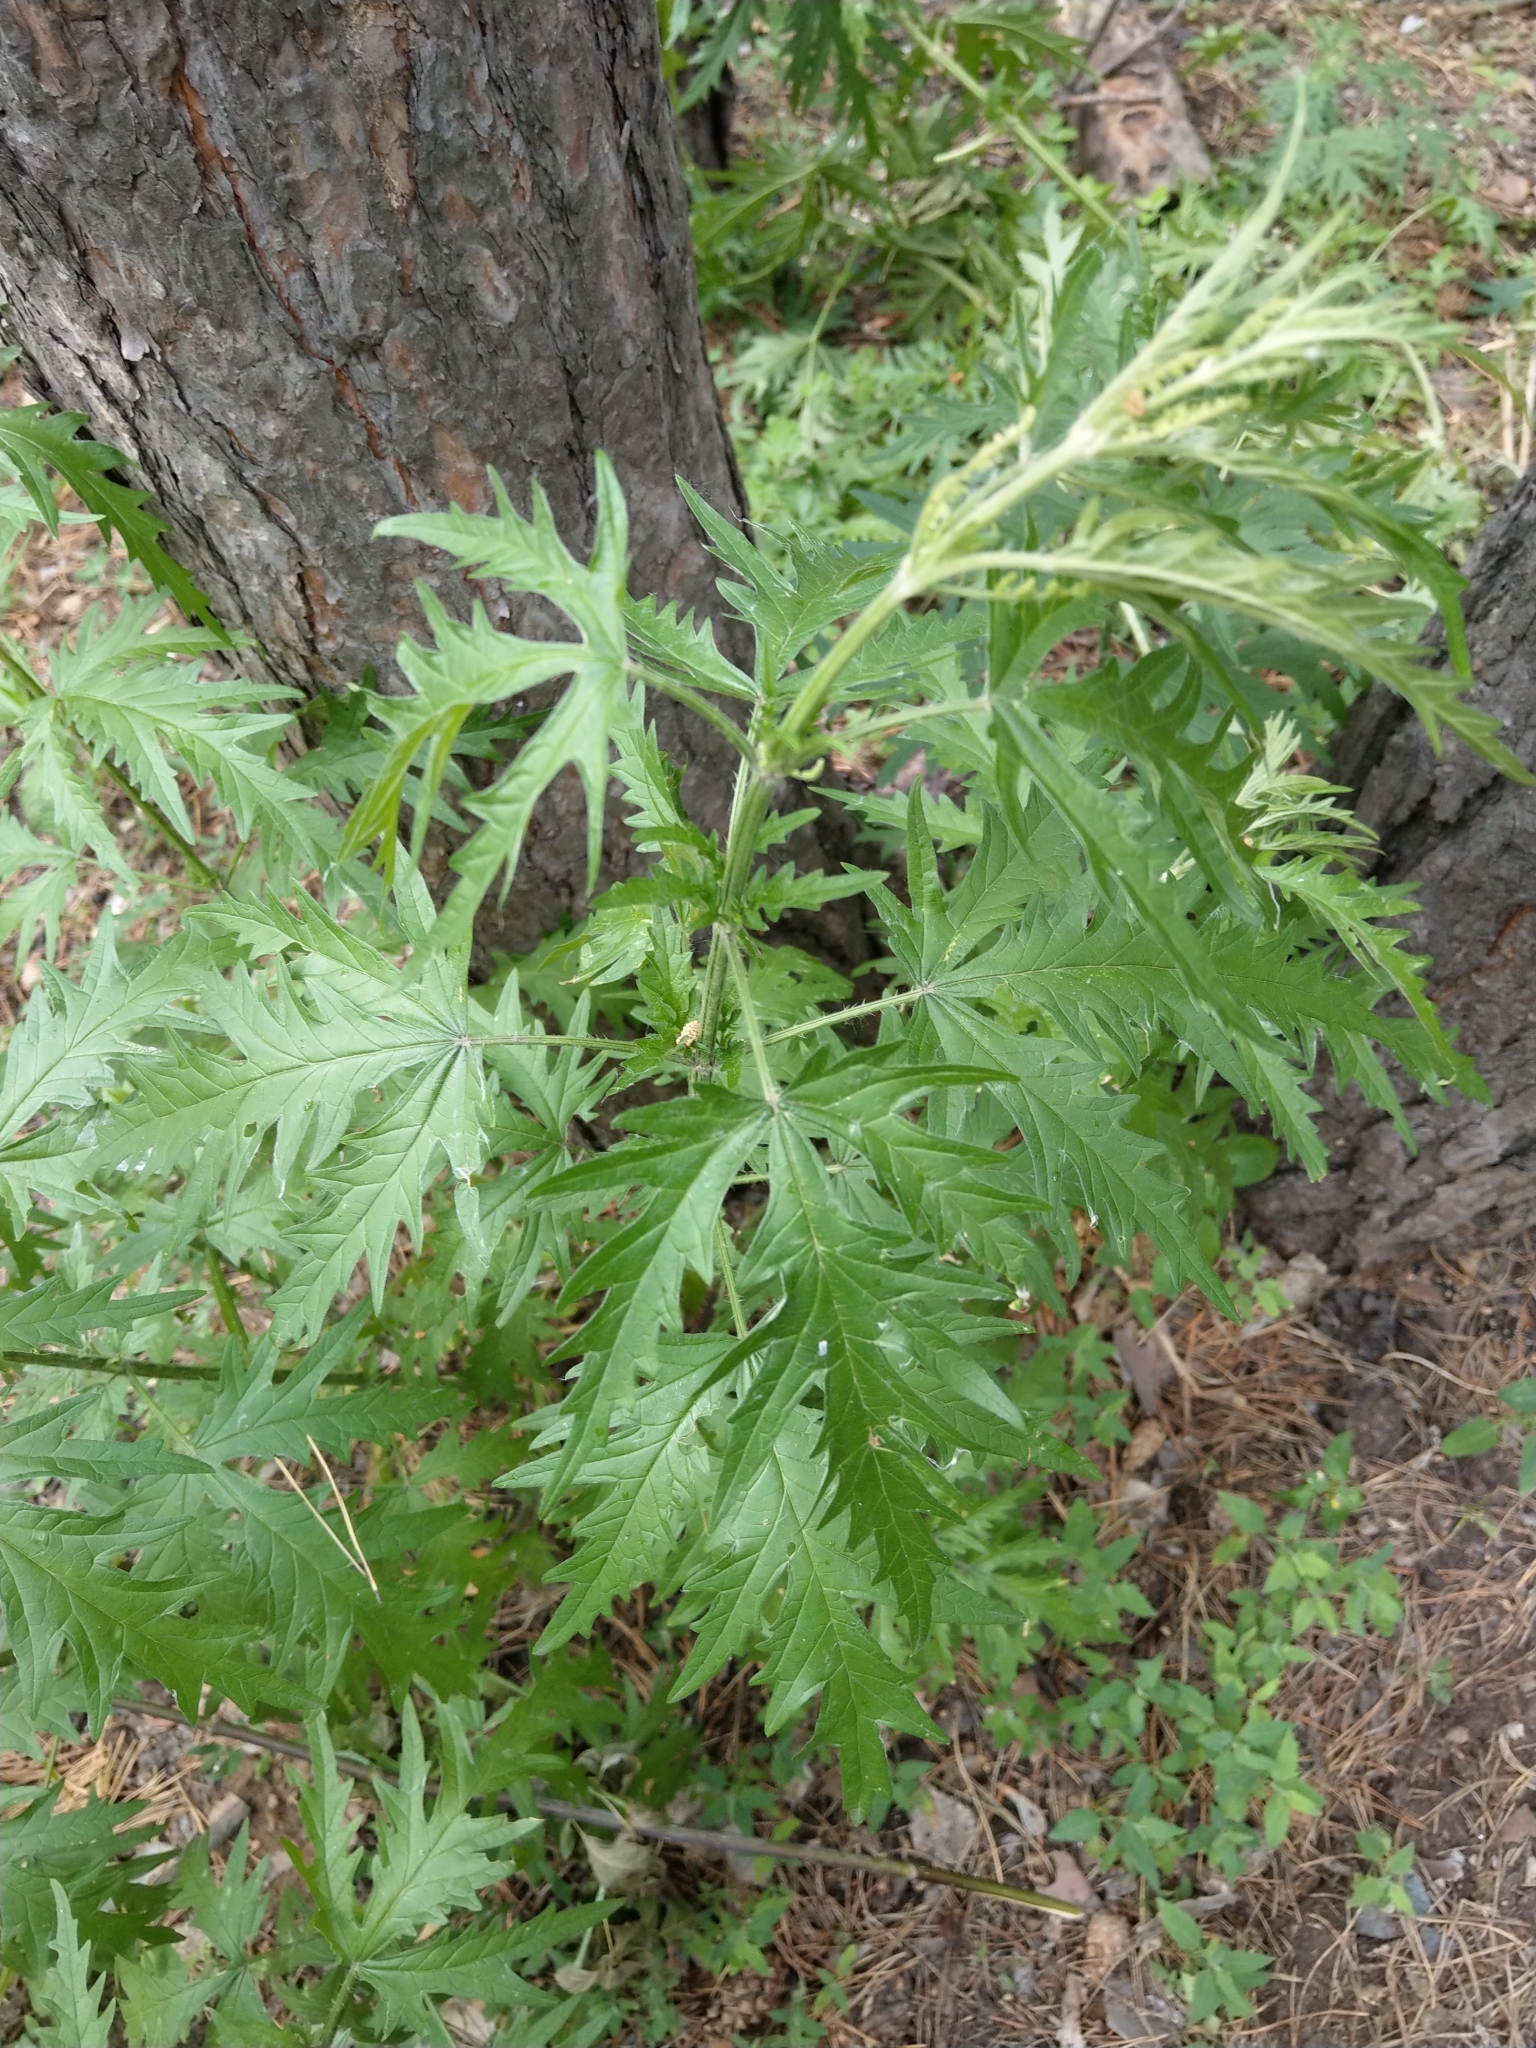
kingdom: Plantae
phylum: Tracheophyta
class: Magnoliopsida
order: Rosales
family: Urticaceae
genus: Urtica
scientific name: Urtica cannabina
